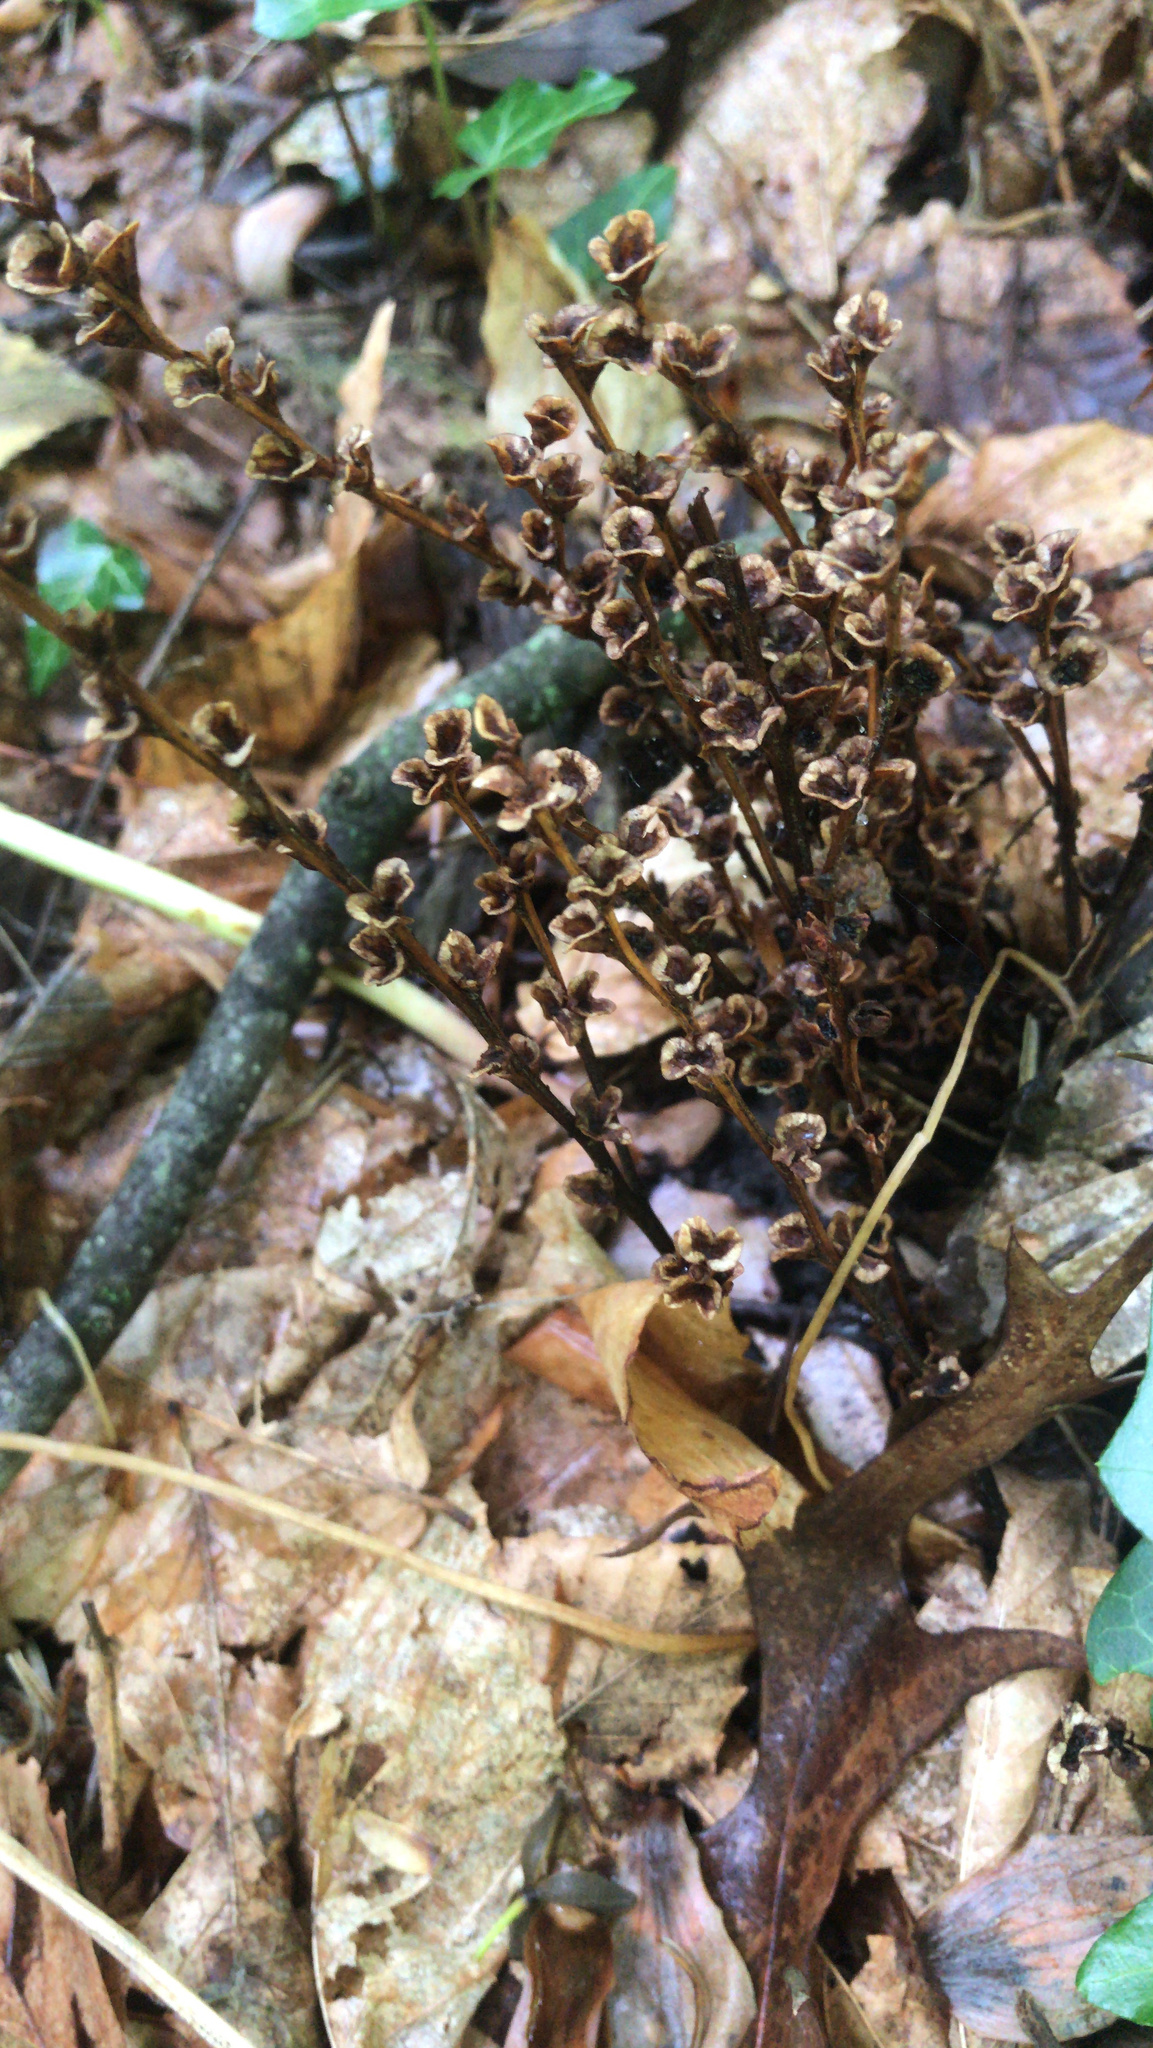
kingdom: Plantae
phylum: Tracheophyta
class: Magnoliopsida
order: Lamiales
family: Orobanchaceae
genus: Epifagus
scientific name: Epifagus virginiana
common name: Beechdrops
